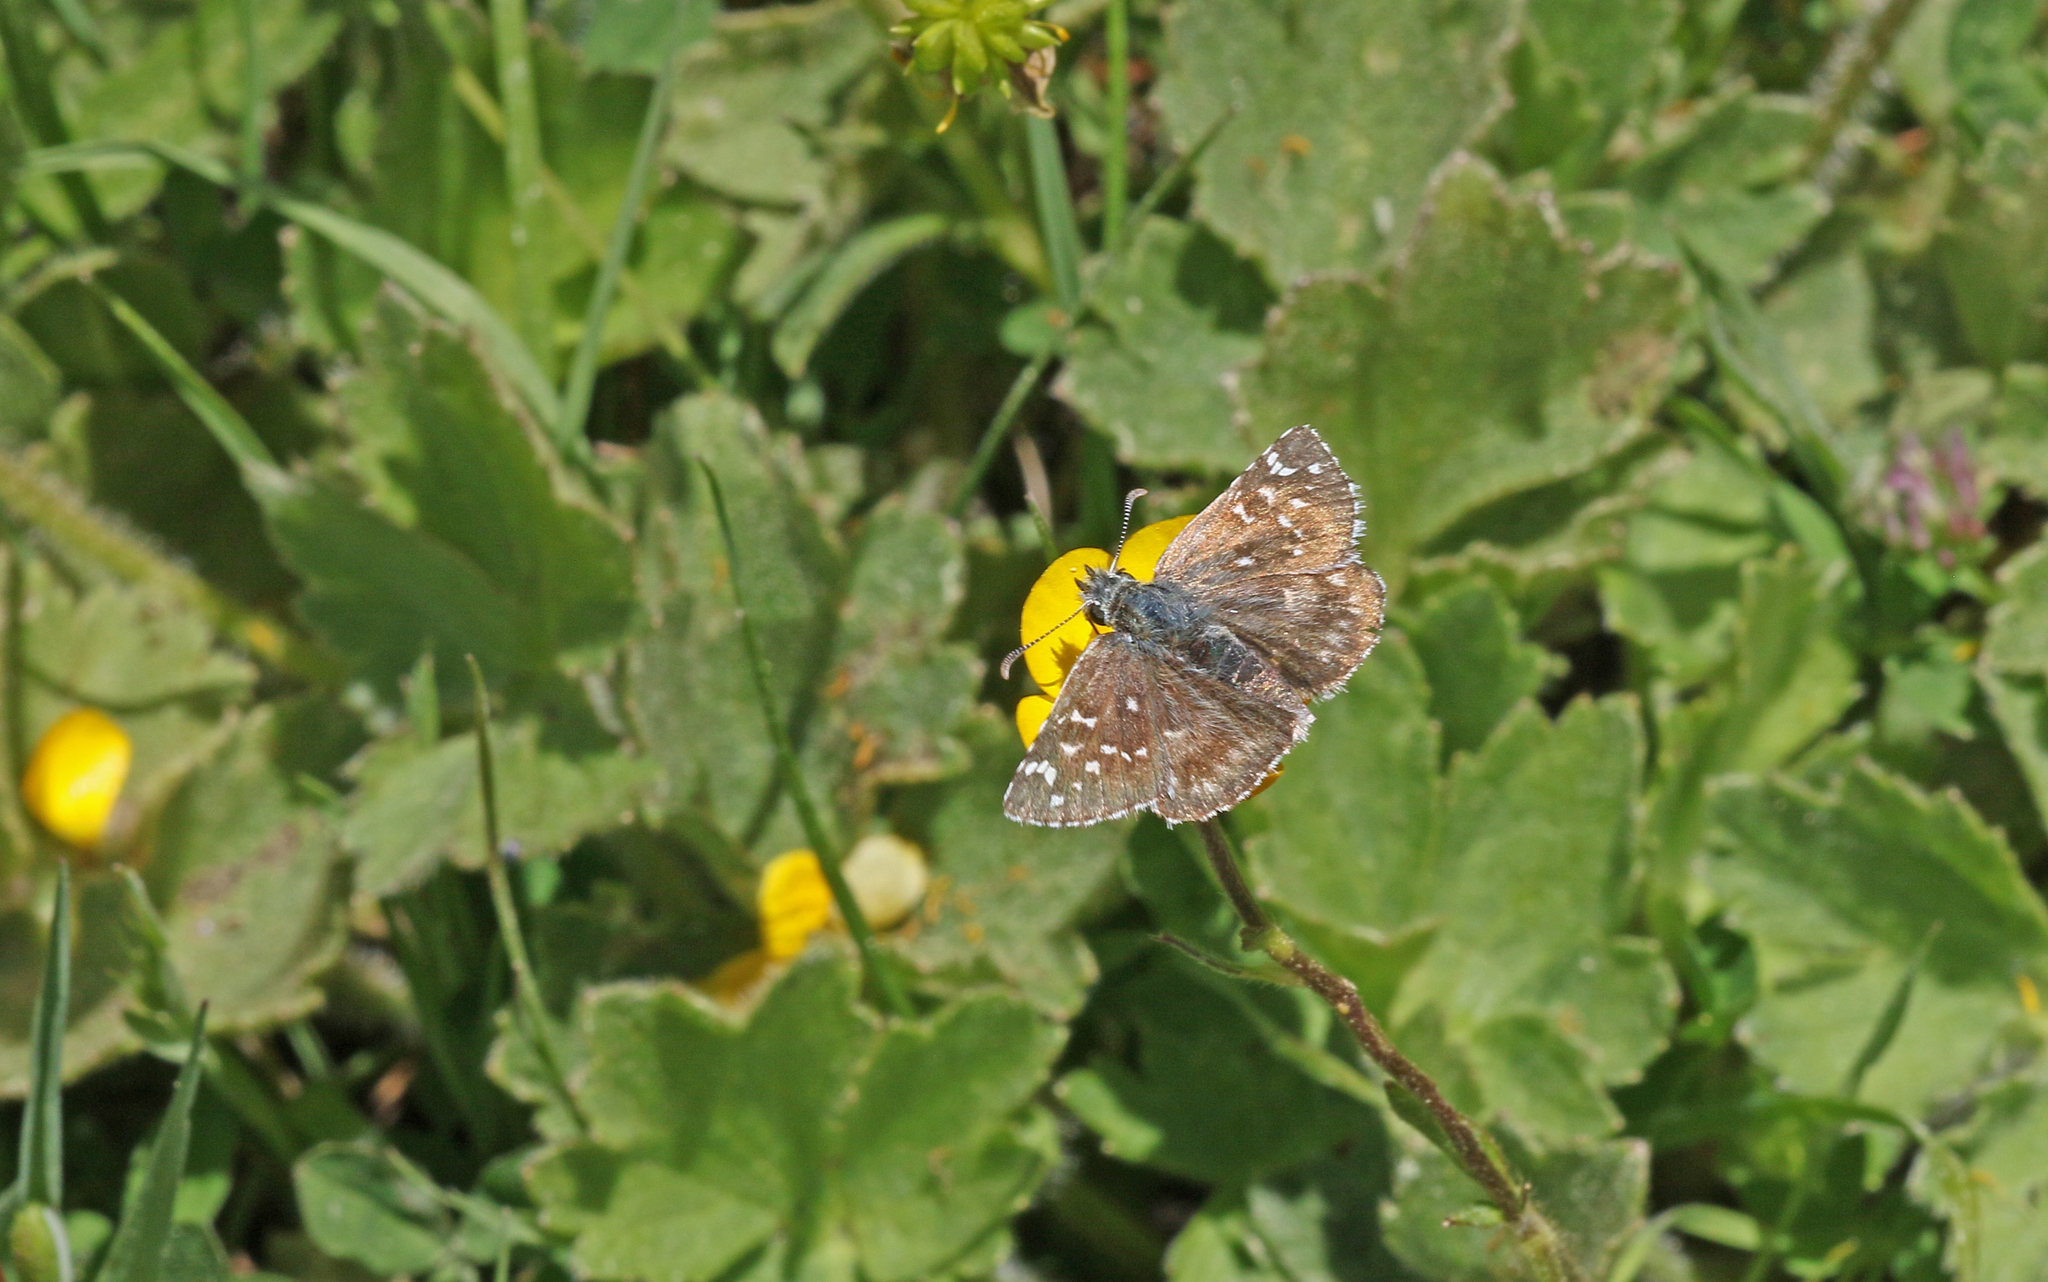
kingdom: Animalia
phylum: Arthropoda
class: Insecta
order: Lepidoptera
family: Hesperiidae
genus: Pyrgus
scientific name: Pyrgus onopordi
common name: Rosy grizzled skipper
